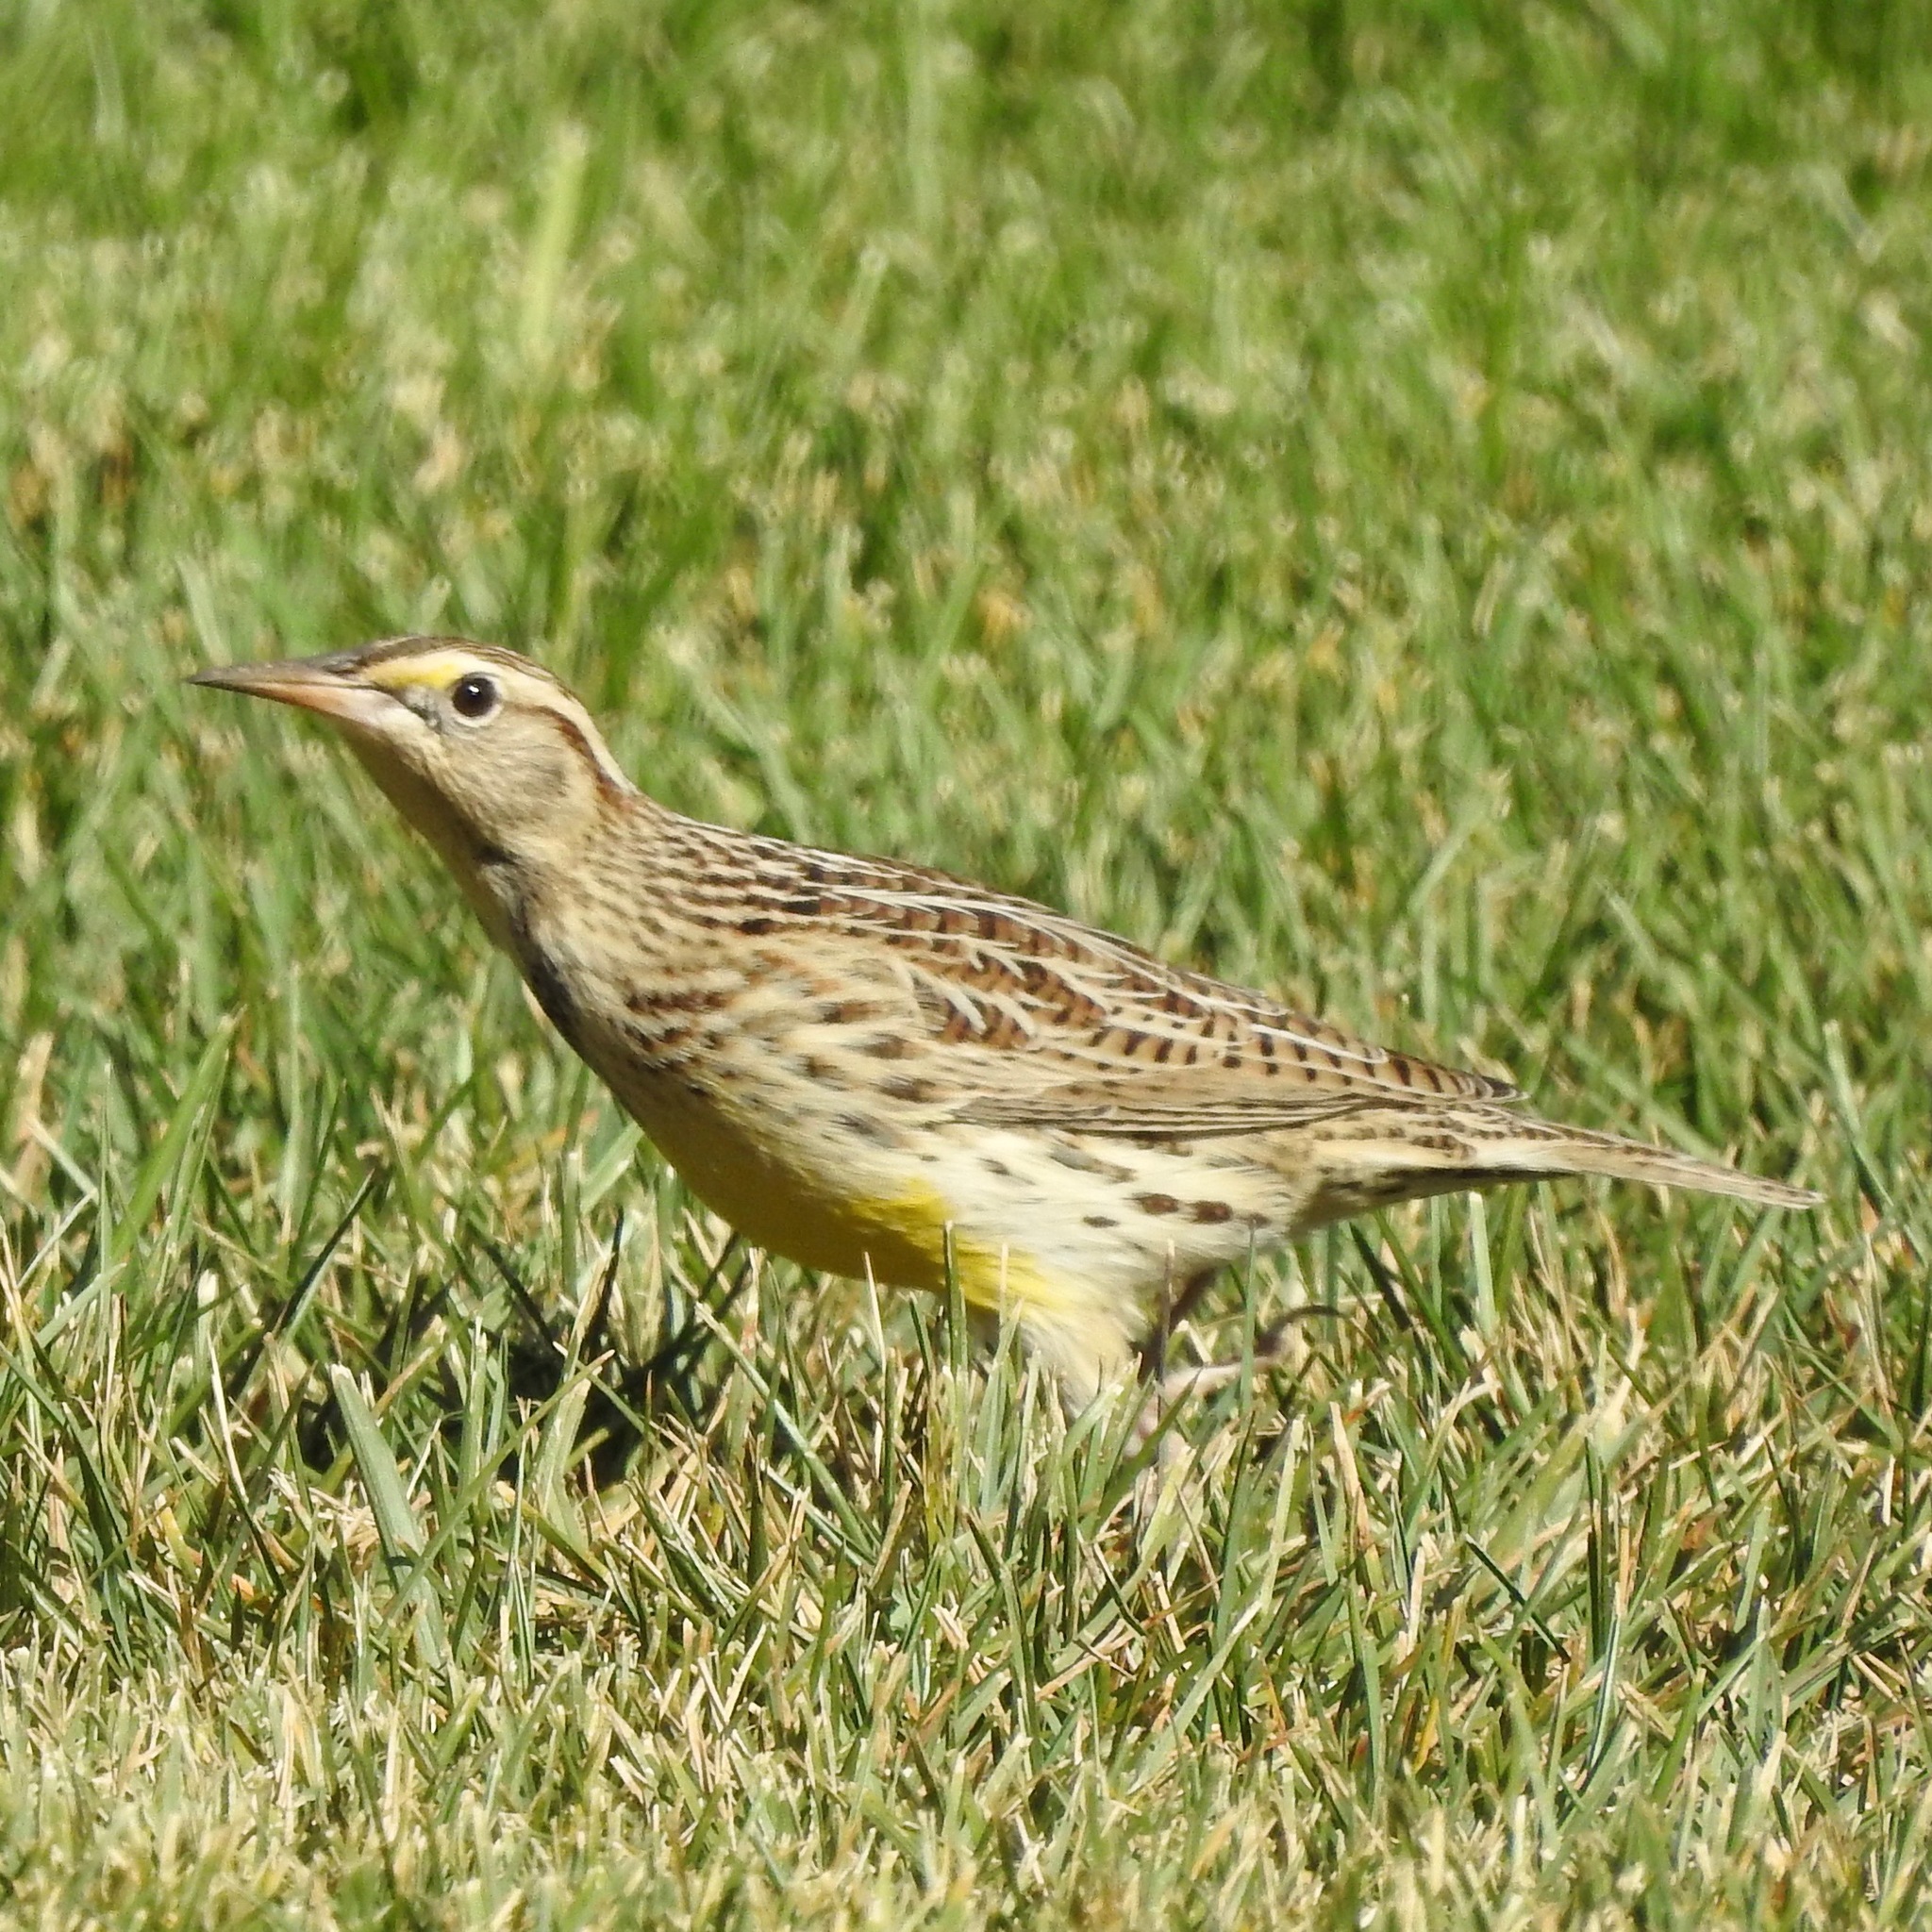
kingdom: Animalia
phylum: Chordata
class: Aves
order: Passeriformes
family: Icteridae
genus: Sturnella
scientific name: Sturnella neglecta
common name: Western meadowlark
